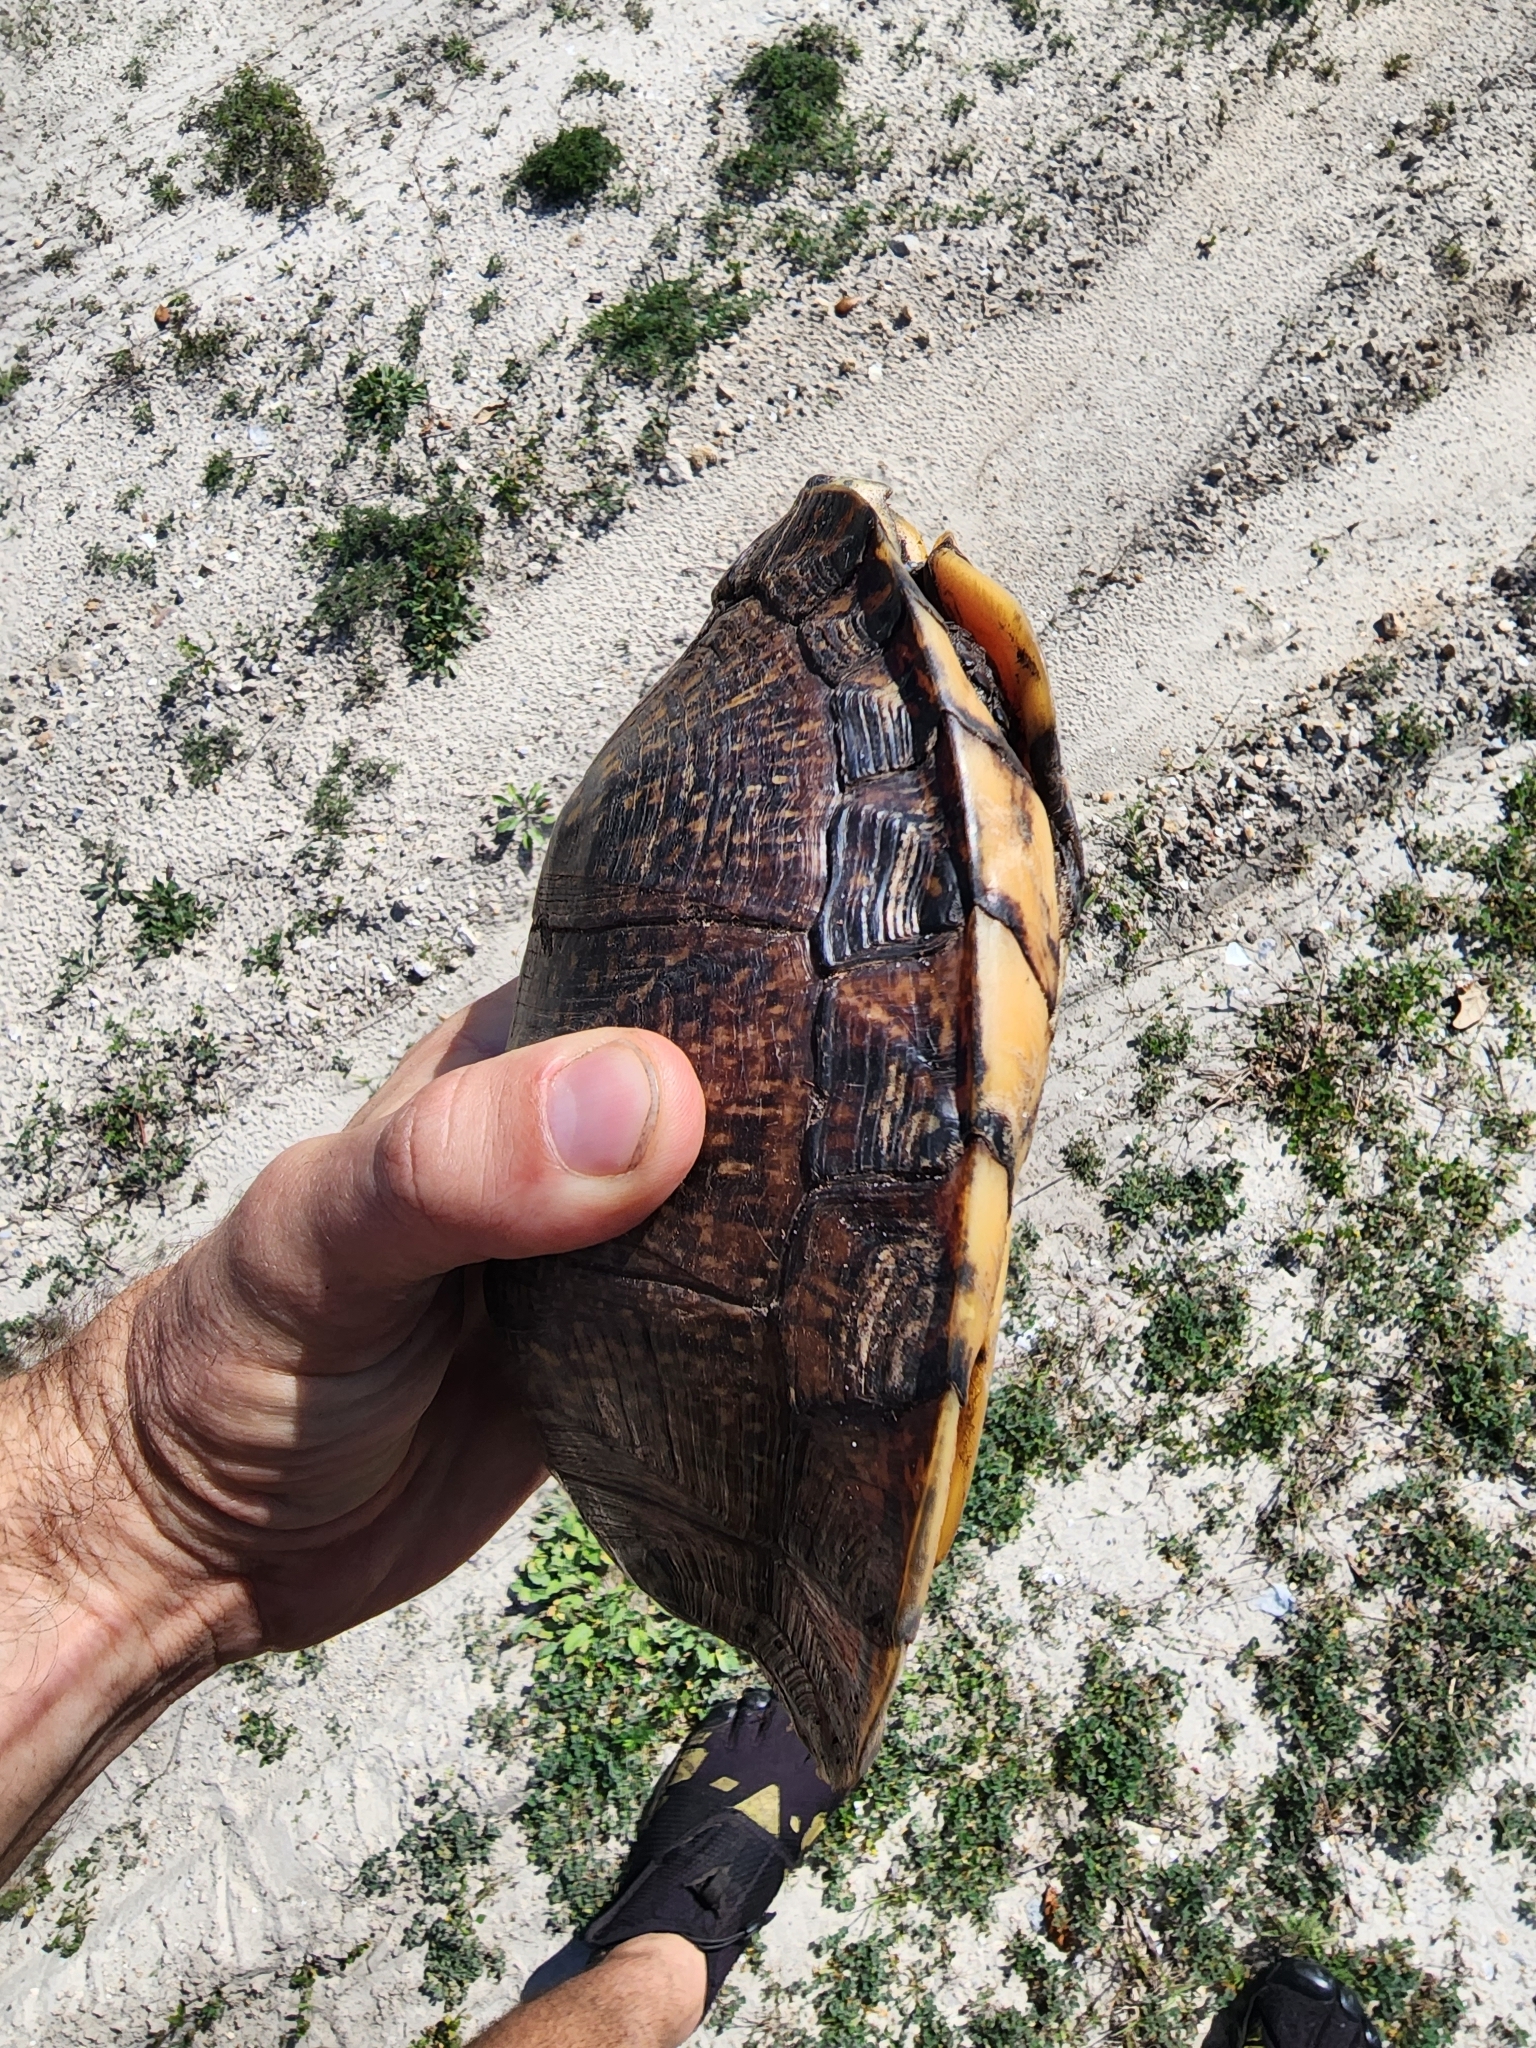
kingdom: Animalia
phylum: Chordata
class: Testudines
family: Emydidae
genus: Terrapene
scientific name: Terrapene carolina
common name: Common box turtle
